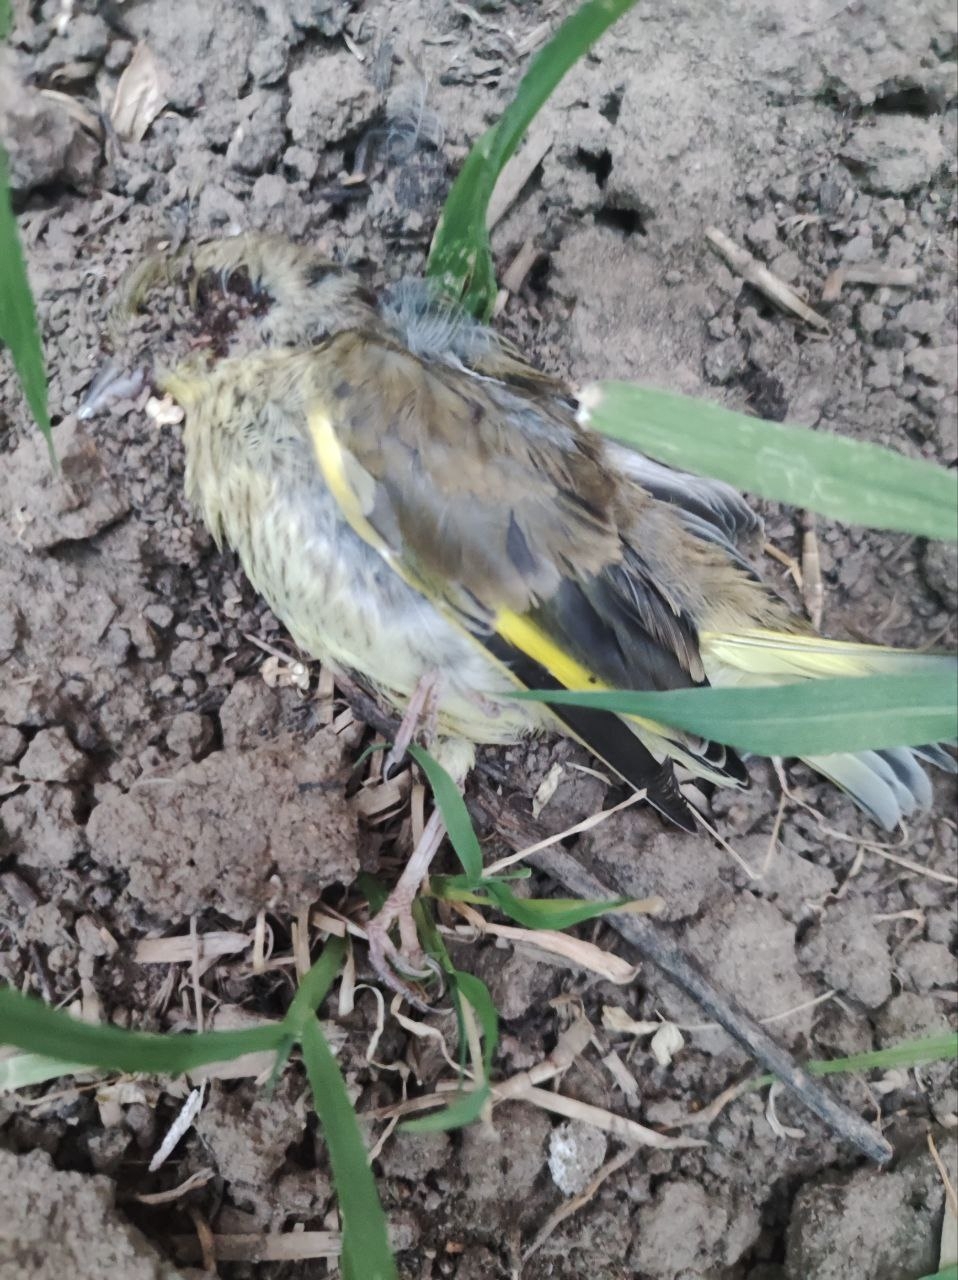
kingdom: Plantae
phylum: Tracheophyta
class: Liliopsida
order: Poales
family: Poaceae
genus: Chloris
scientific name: Chloris chloris
